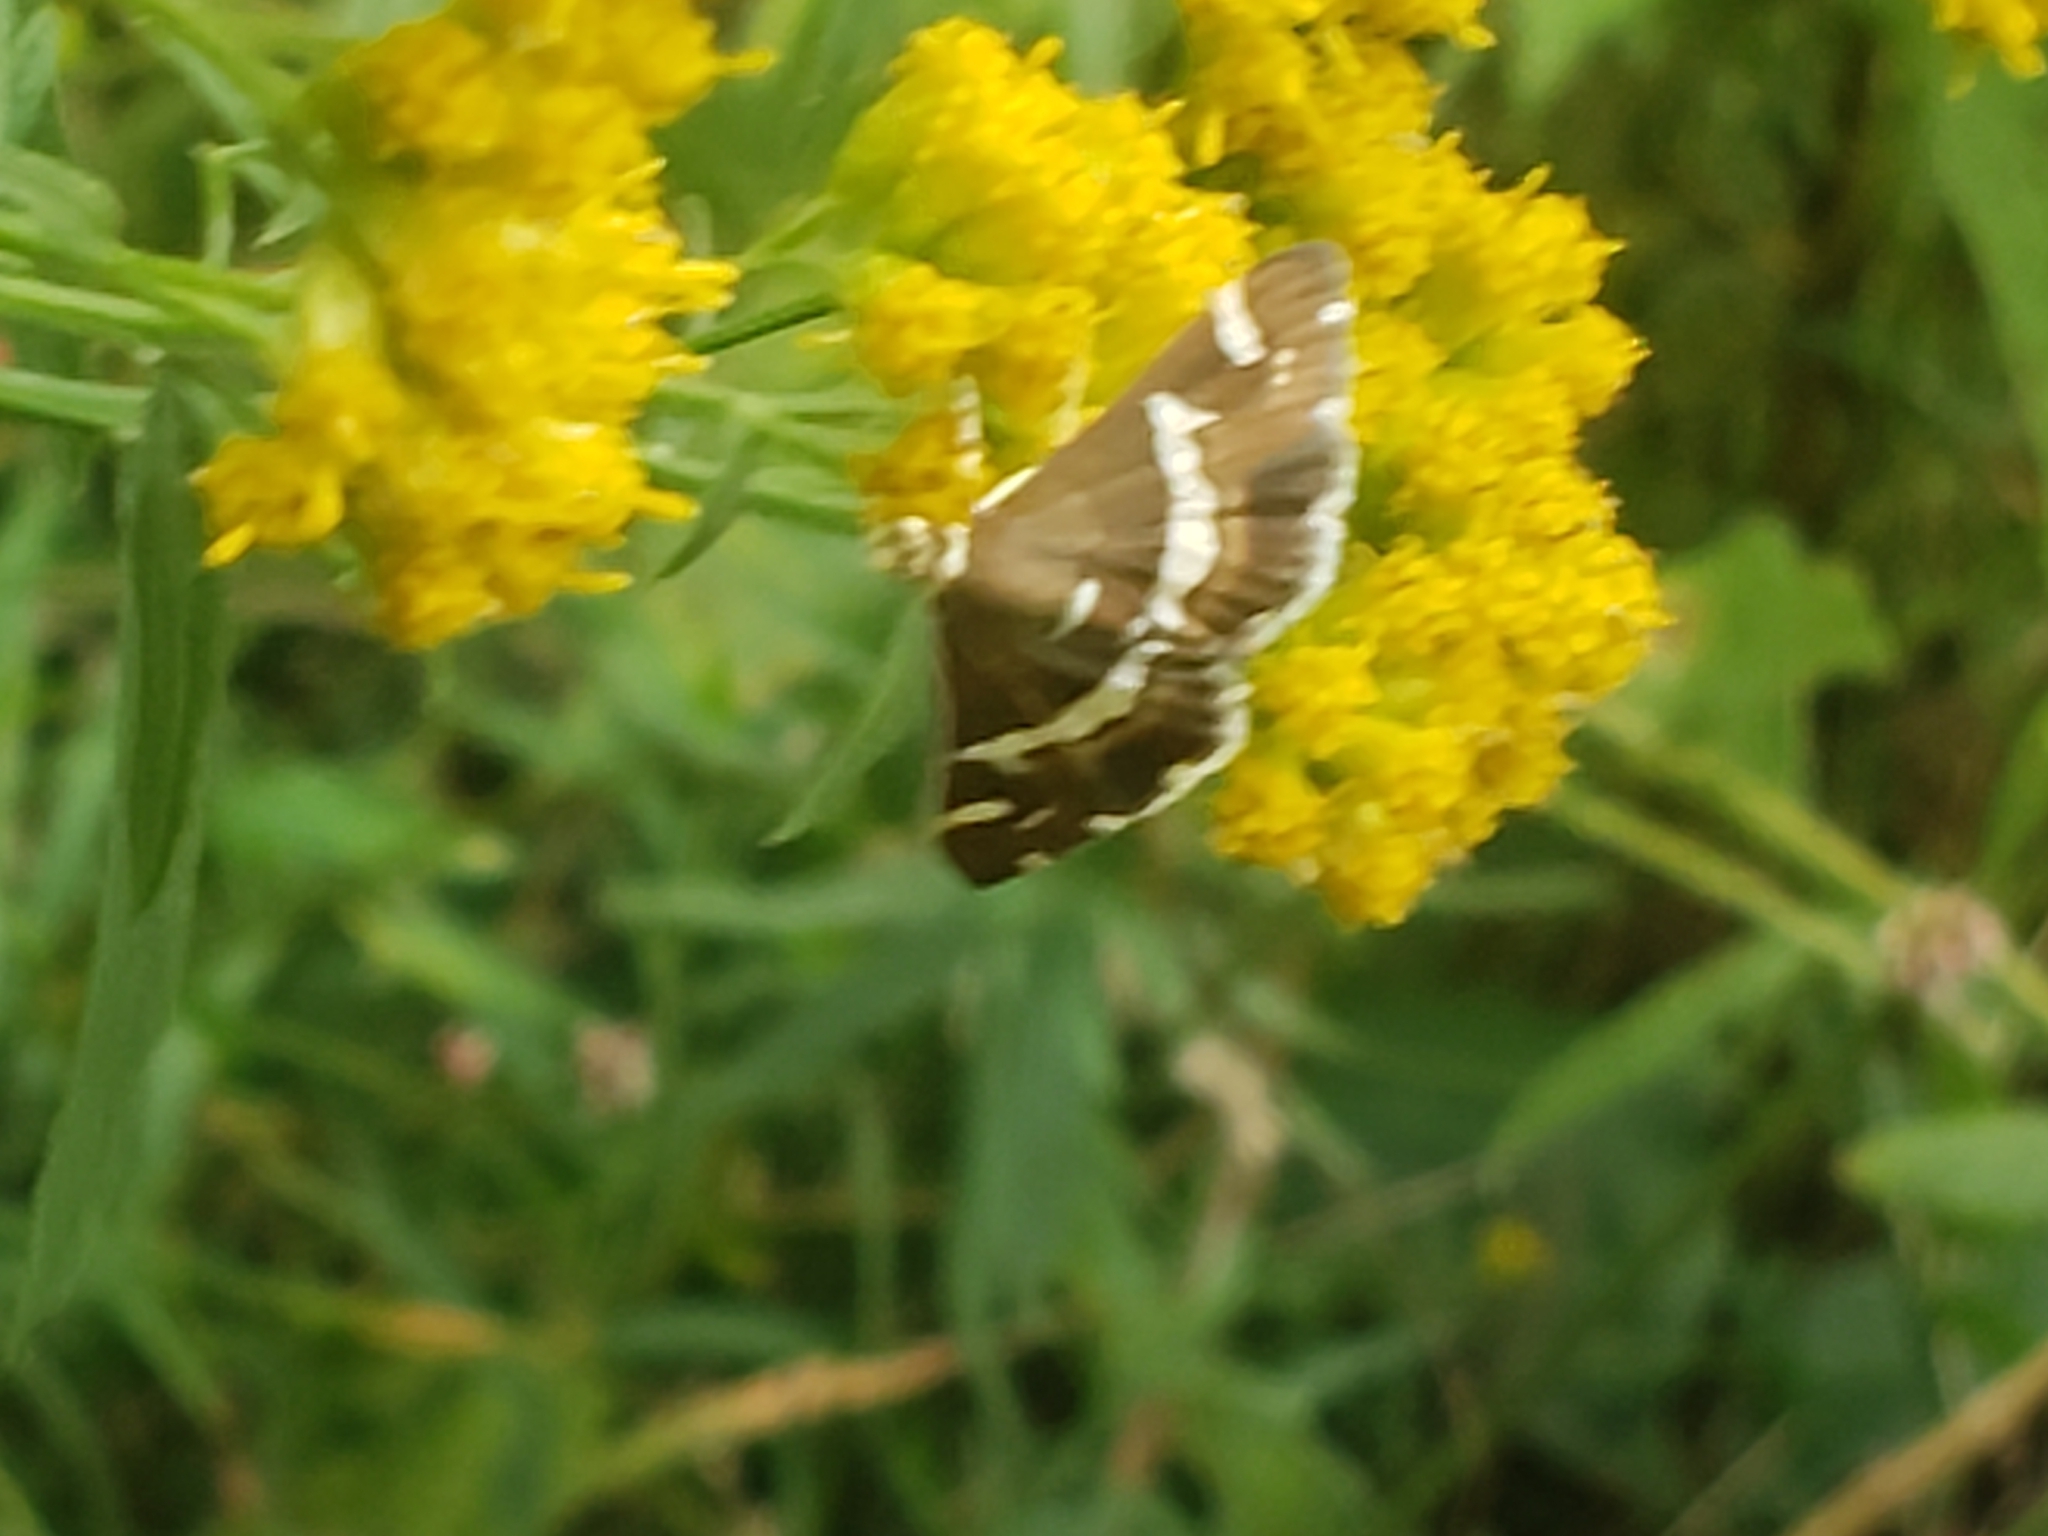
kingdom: Animalia
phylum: Arthropoda
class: Insecta
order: Lepidoptera
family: Crambidae
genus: Spoladea
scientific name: Spoladea recurvalis
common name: Beet webworm moth
